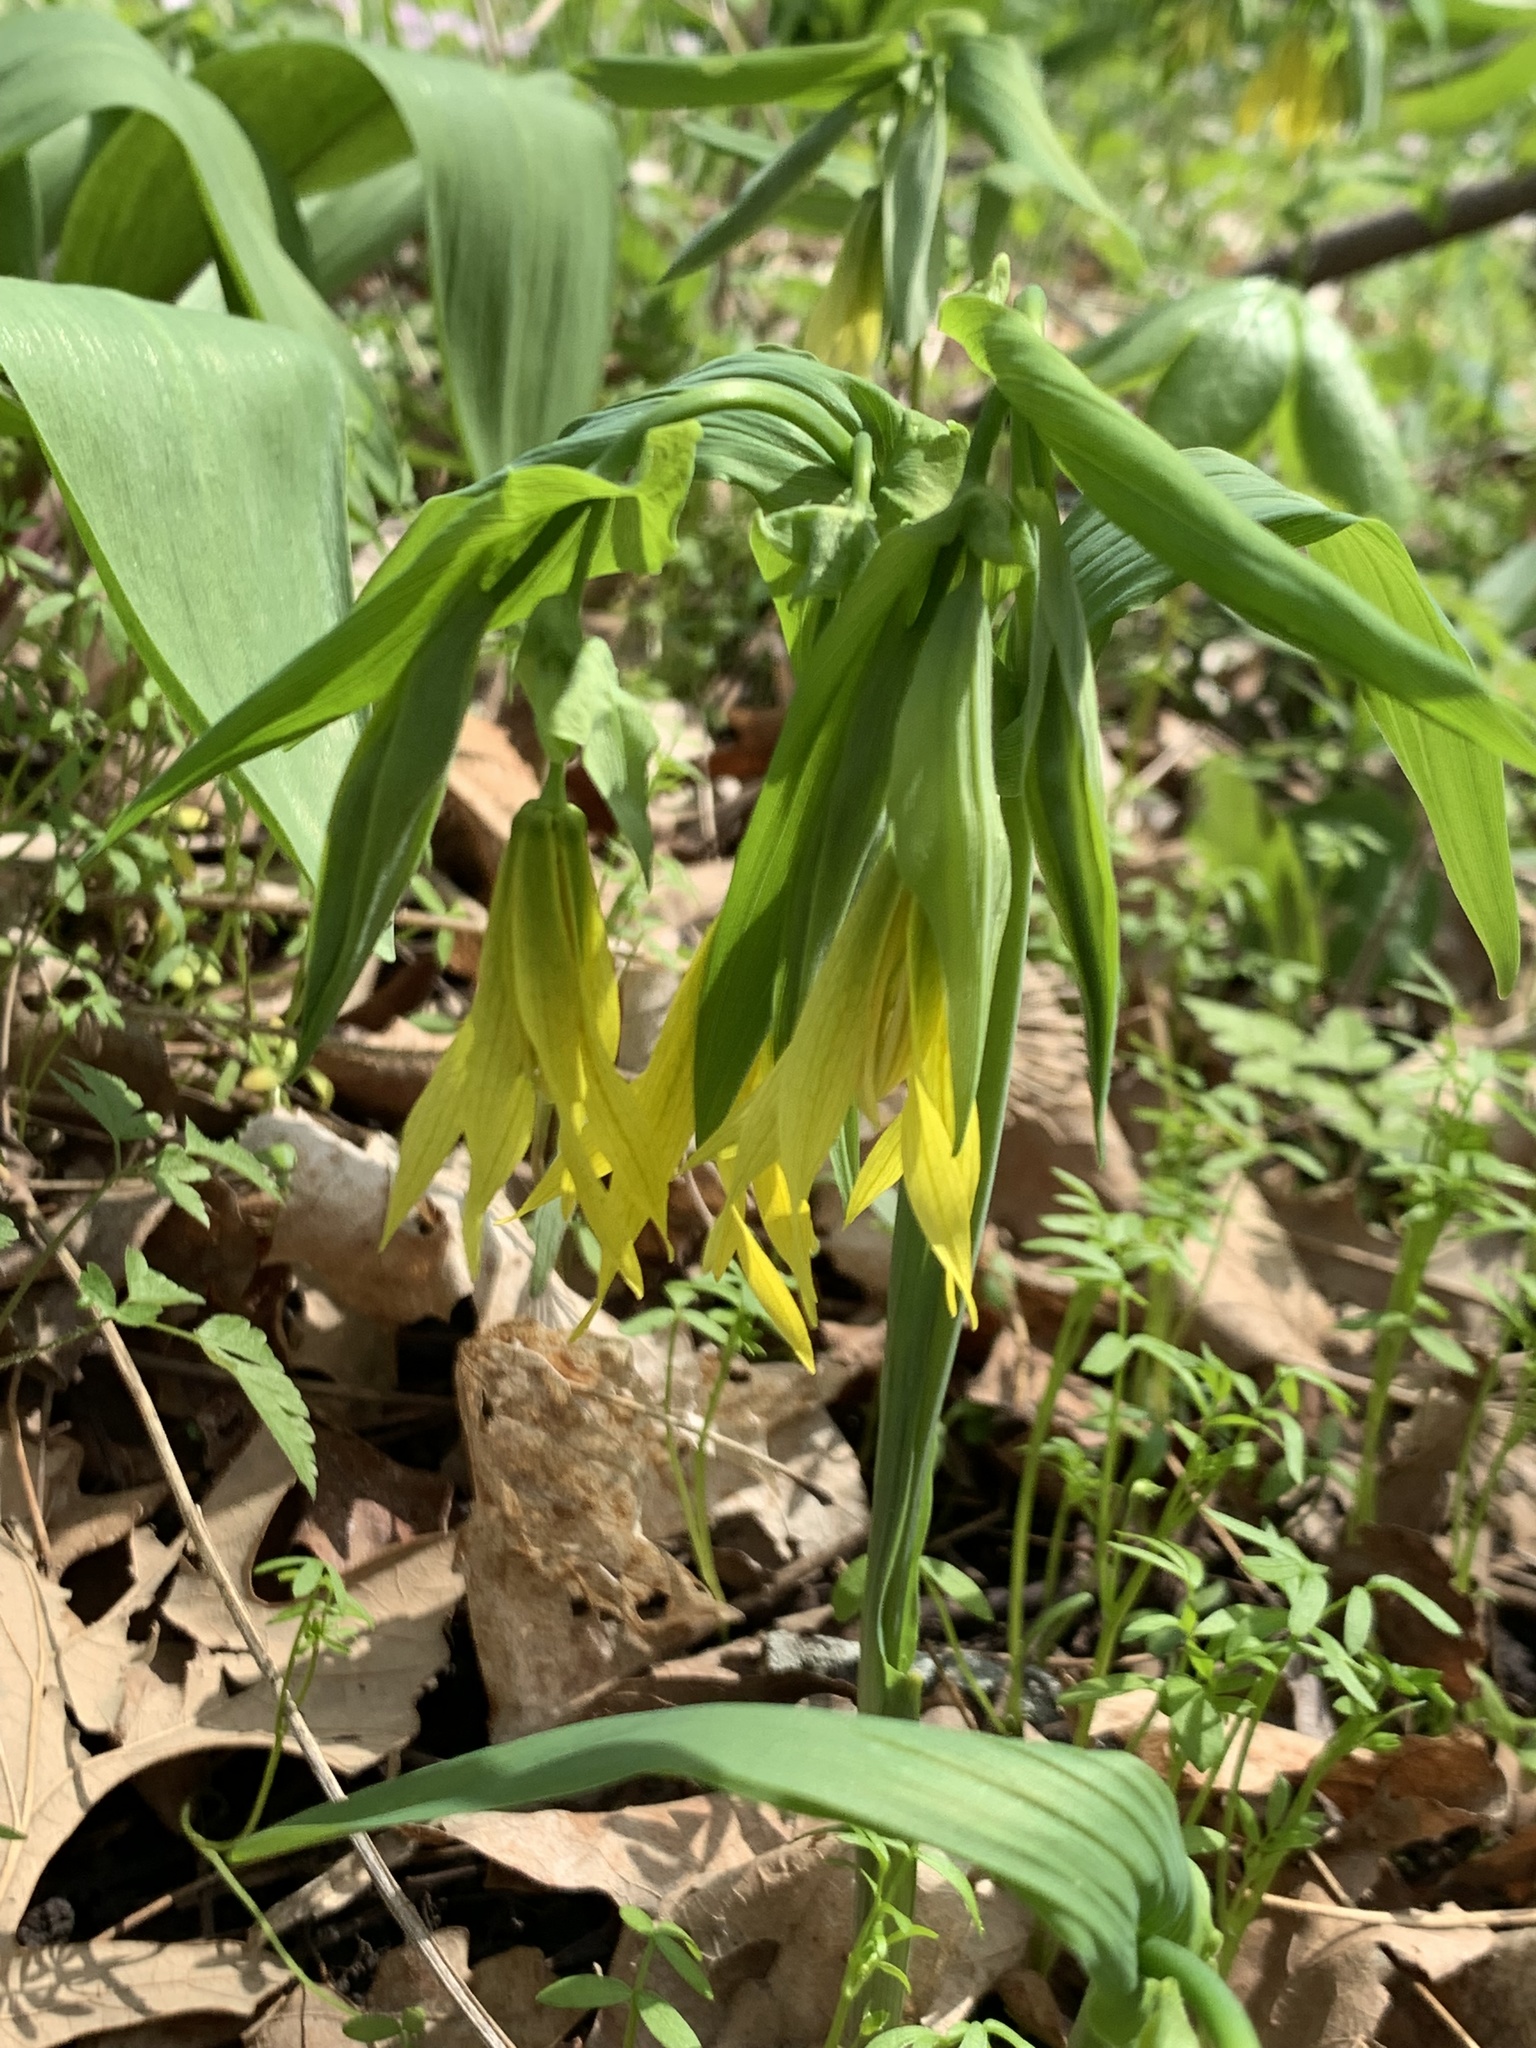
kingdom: Plantae
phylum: Tracheophyta
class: Liliopsida
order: Liliales
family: Colchicaceae
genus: Uvularia
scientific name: Uvularia grandiflora
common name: Bellwort
